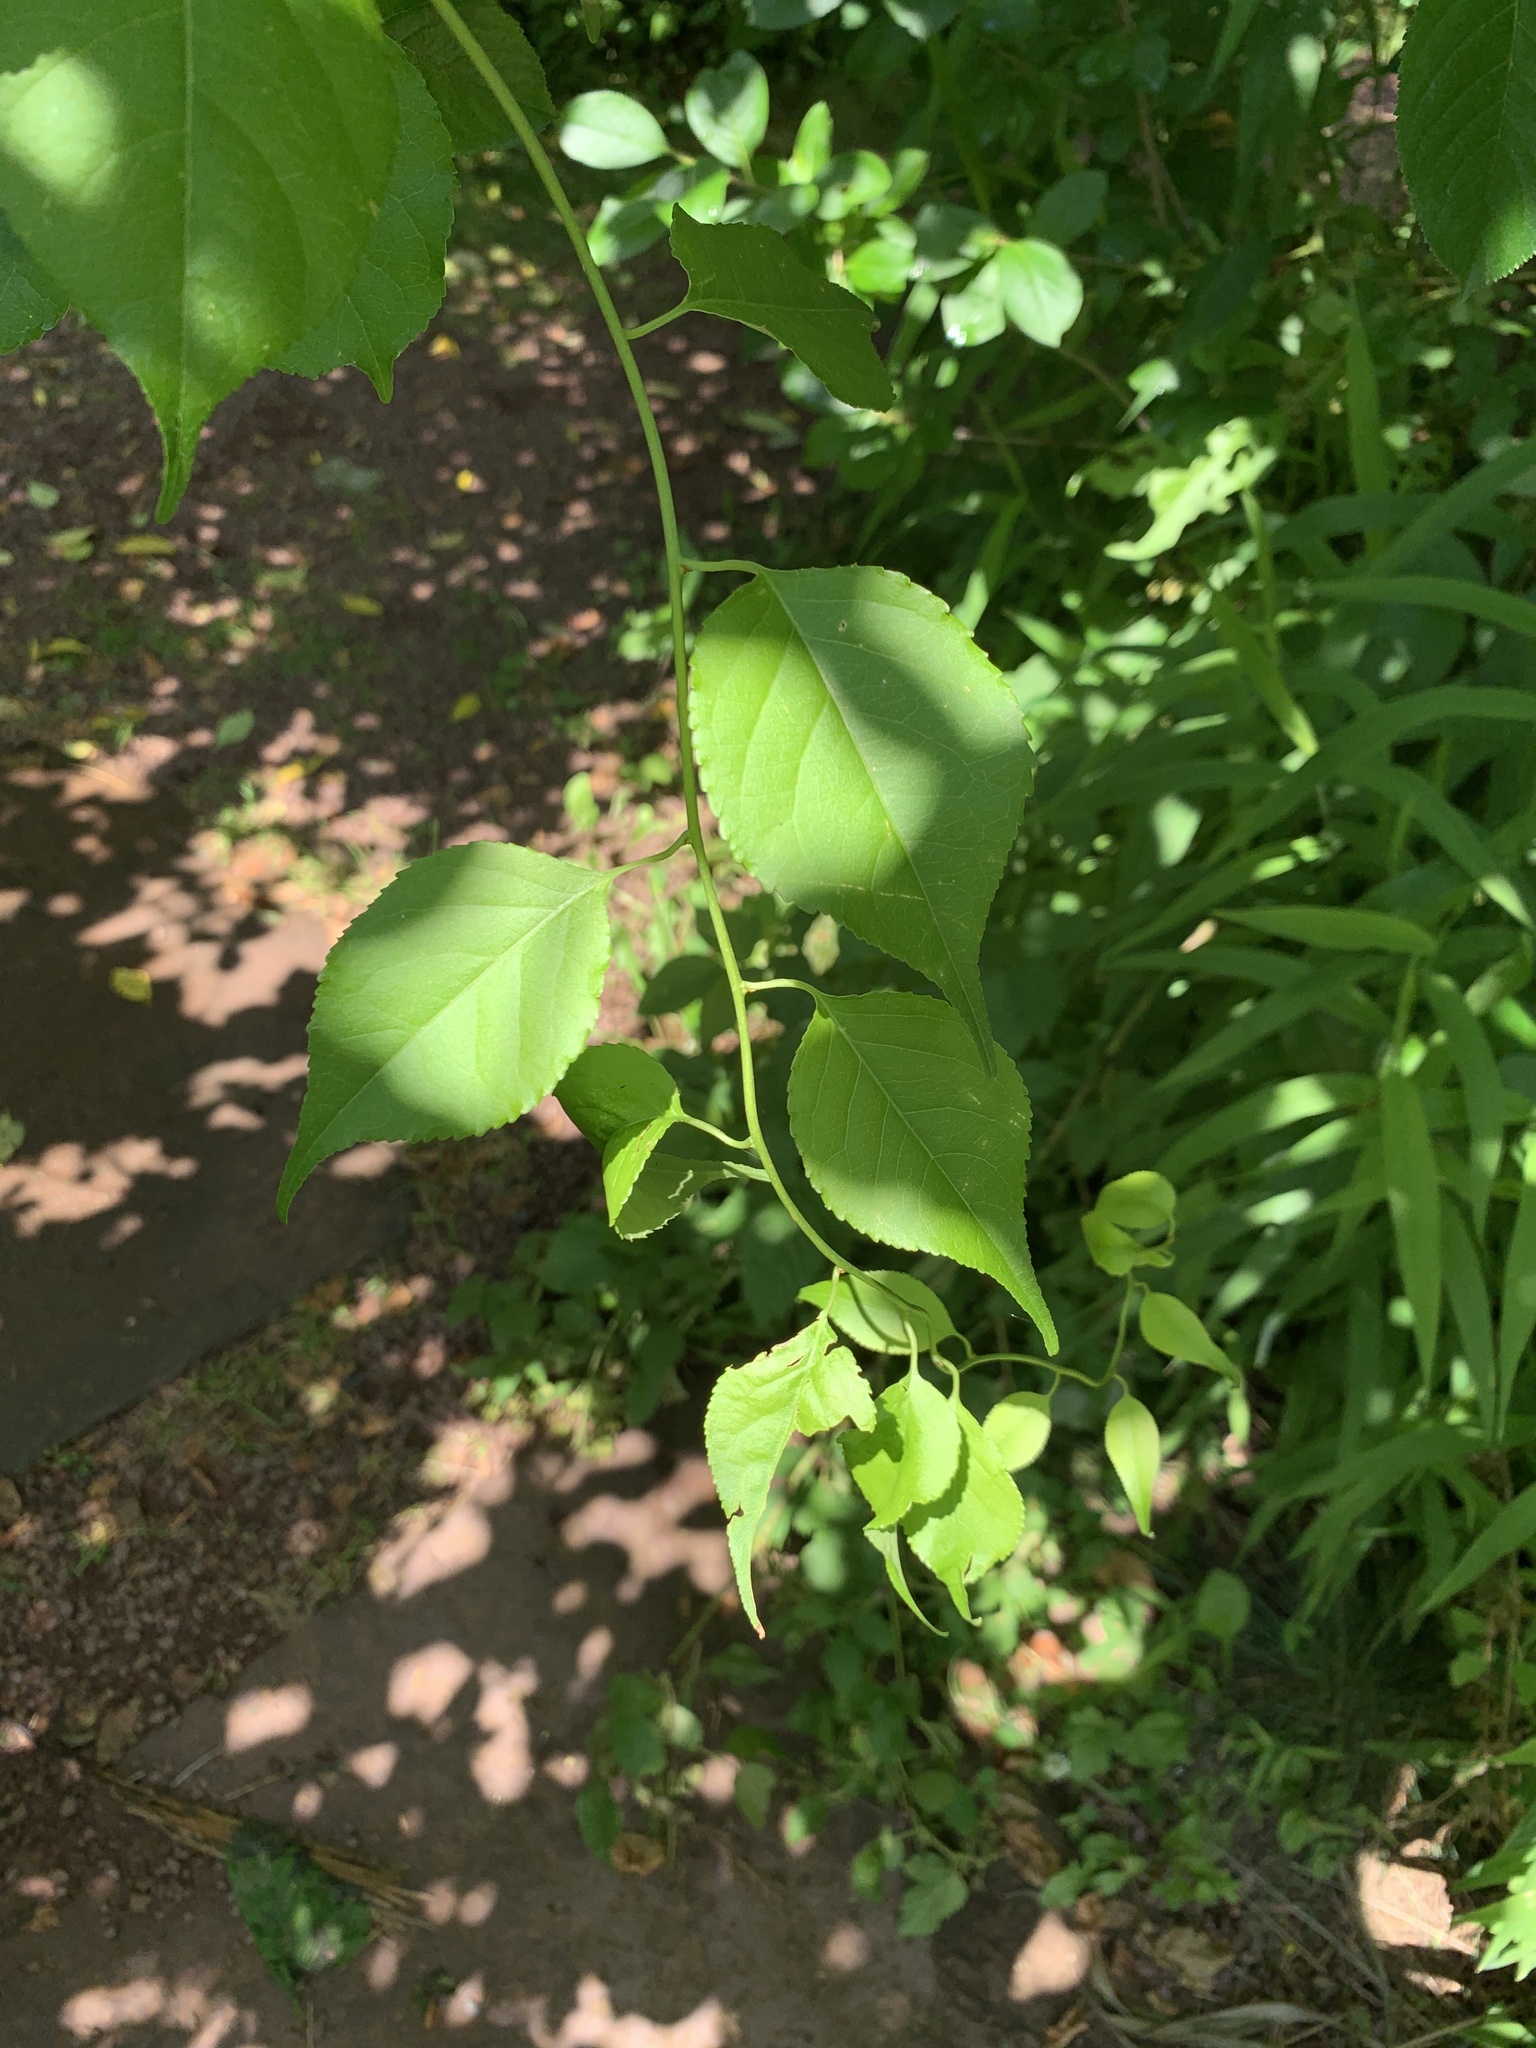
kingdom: Plantae
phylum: Tracheophyta
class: Magnoliopsida
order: Celastrales
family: Celastraceae
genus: Celastrus
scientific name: Celastrus orbiculatus
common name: Oriental bittersweet
